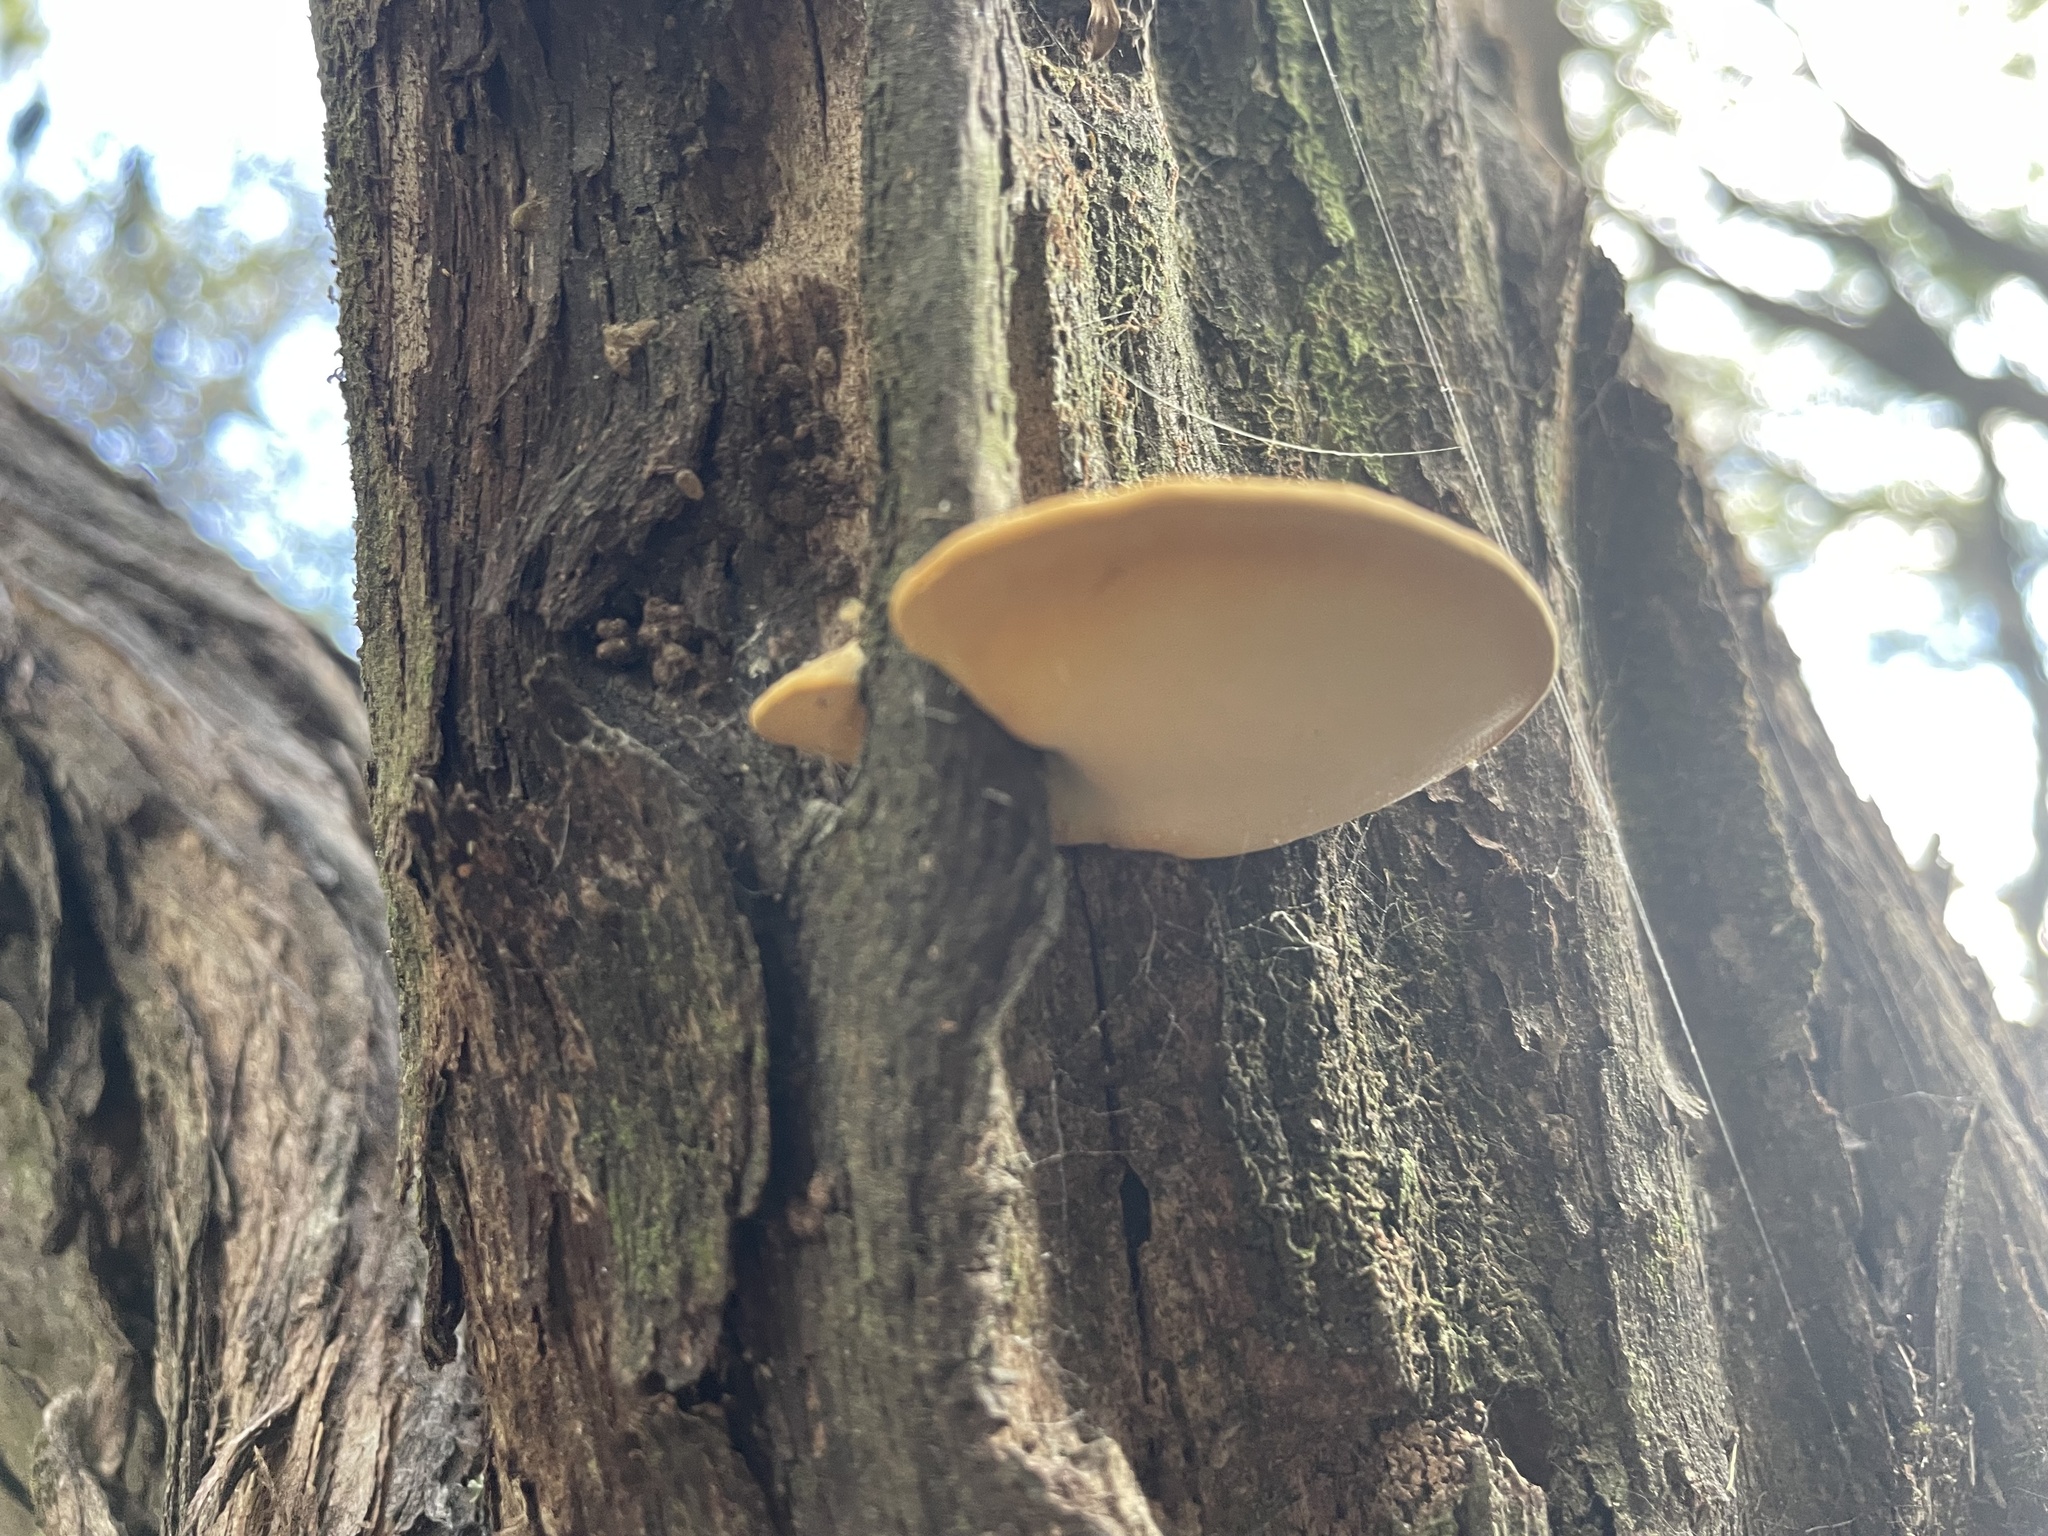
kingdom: Fungi
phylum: Basidiomycota
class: Agaricomycetes
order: Polyporales
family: Laetiporaceae
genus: Laetiporus
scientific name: Laetiporus portentosus
